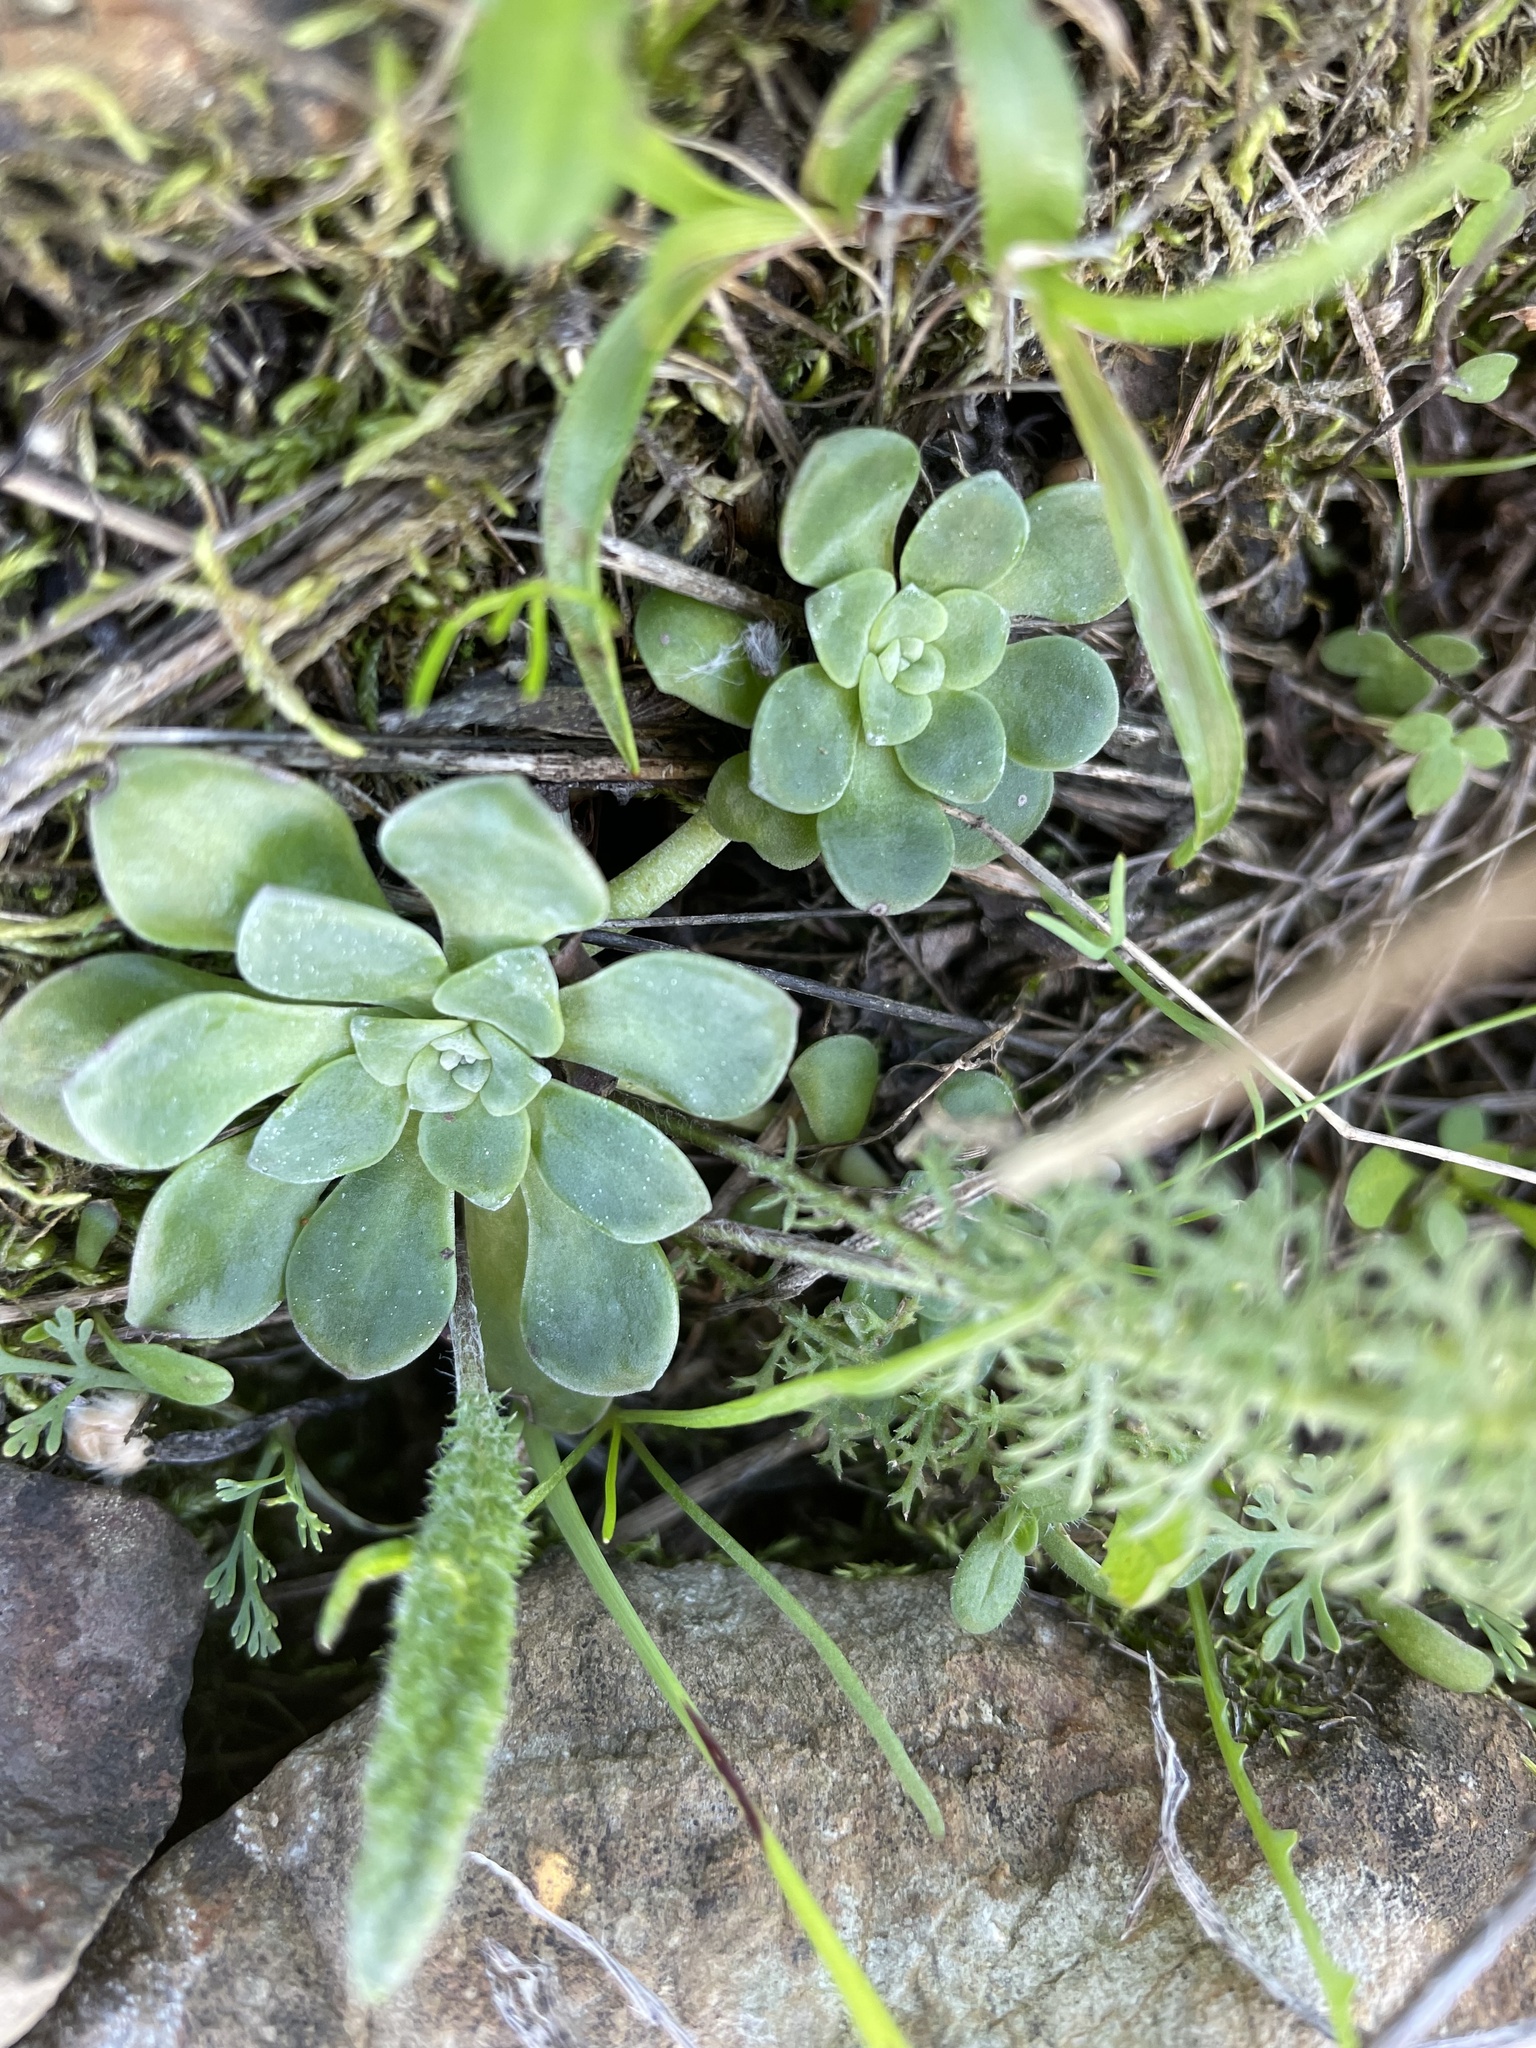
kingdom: Plantae
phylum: Tracheophyta
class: Magnoliopsida
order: Saxifragales
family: Crassulaceae
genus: Sedum
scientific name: Sedum spathulifolium
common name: Colorado stonecrop
